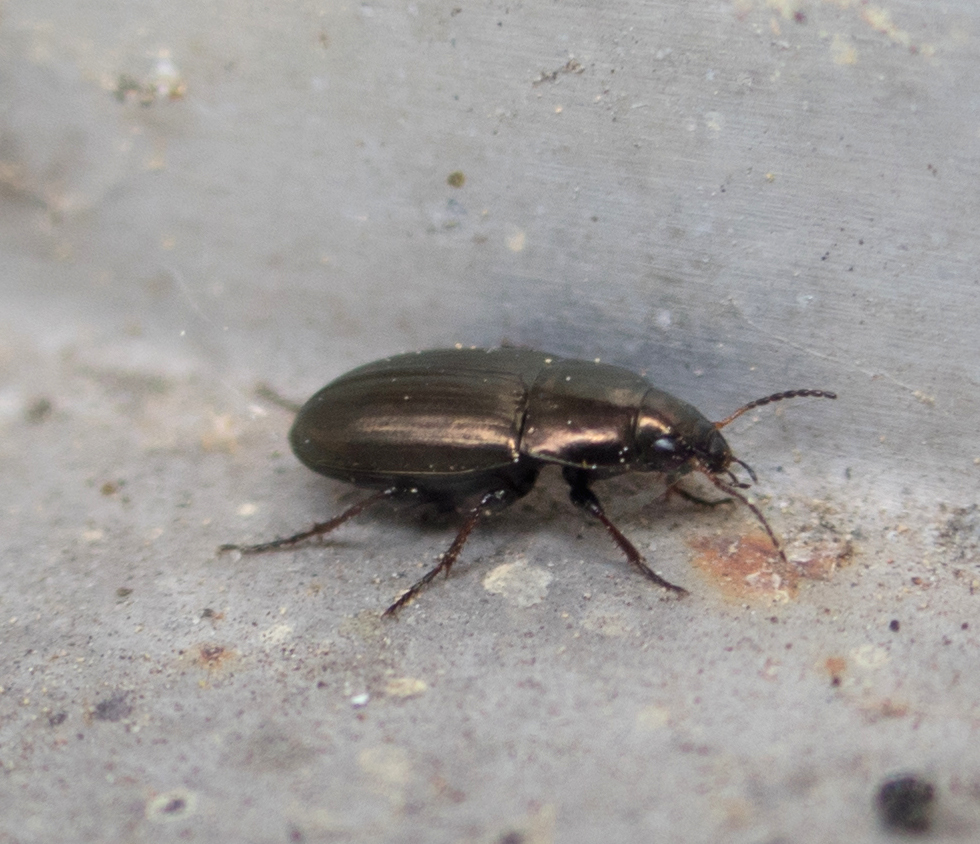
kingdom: Animalia
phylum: Arthropoda
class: Insecta
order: Coleoptera
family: Carabidae
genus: Amara
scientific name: Amara aenea
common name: Common sun beetle
